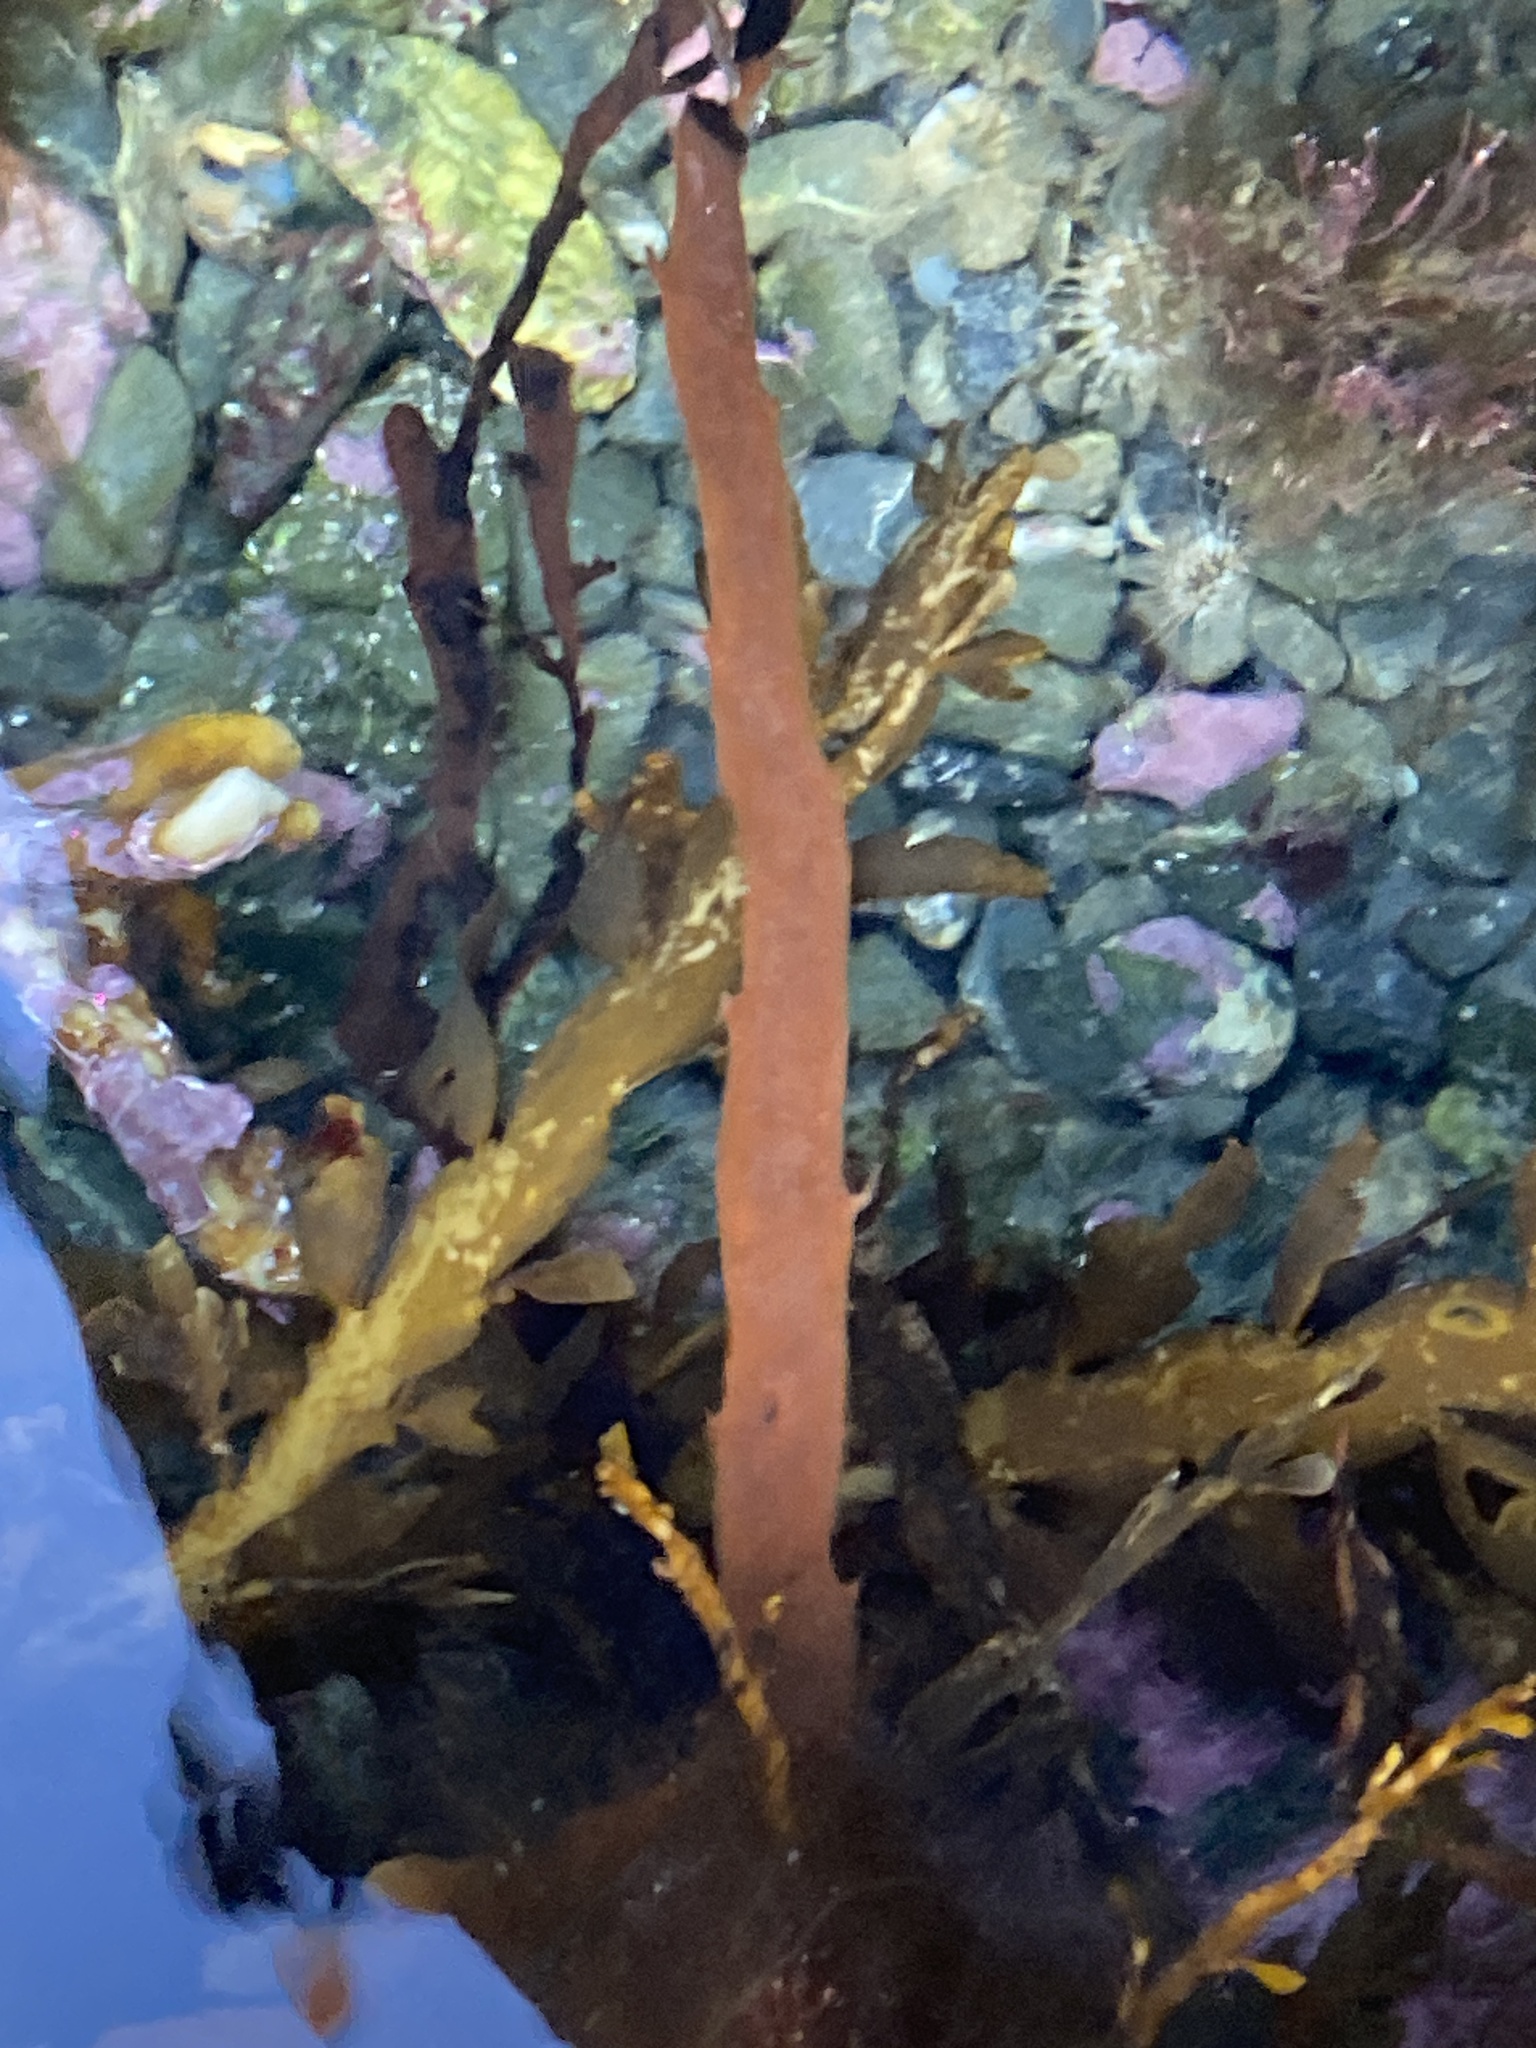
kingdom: Chromista
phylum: Ochrophyta
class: Phaeophyceae
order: Fucales
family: Sargassaceae
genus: Carpophyllum
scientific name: Carpophyllum maschalocarpum
